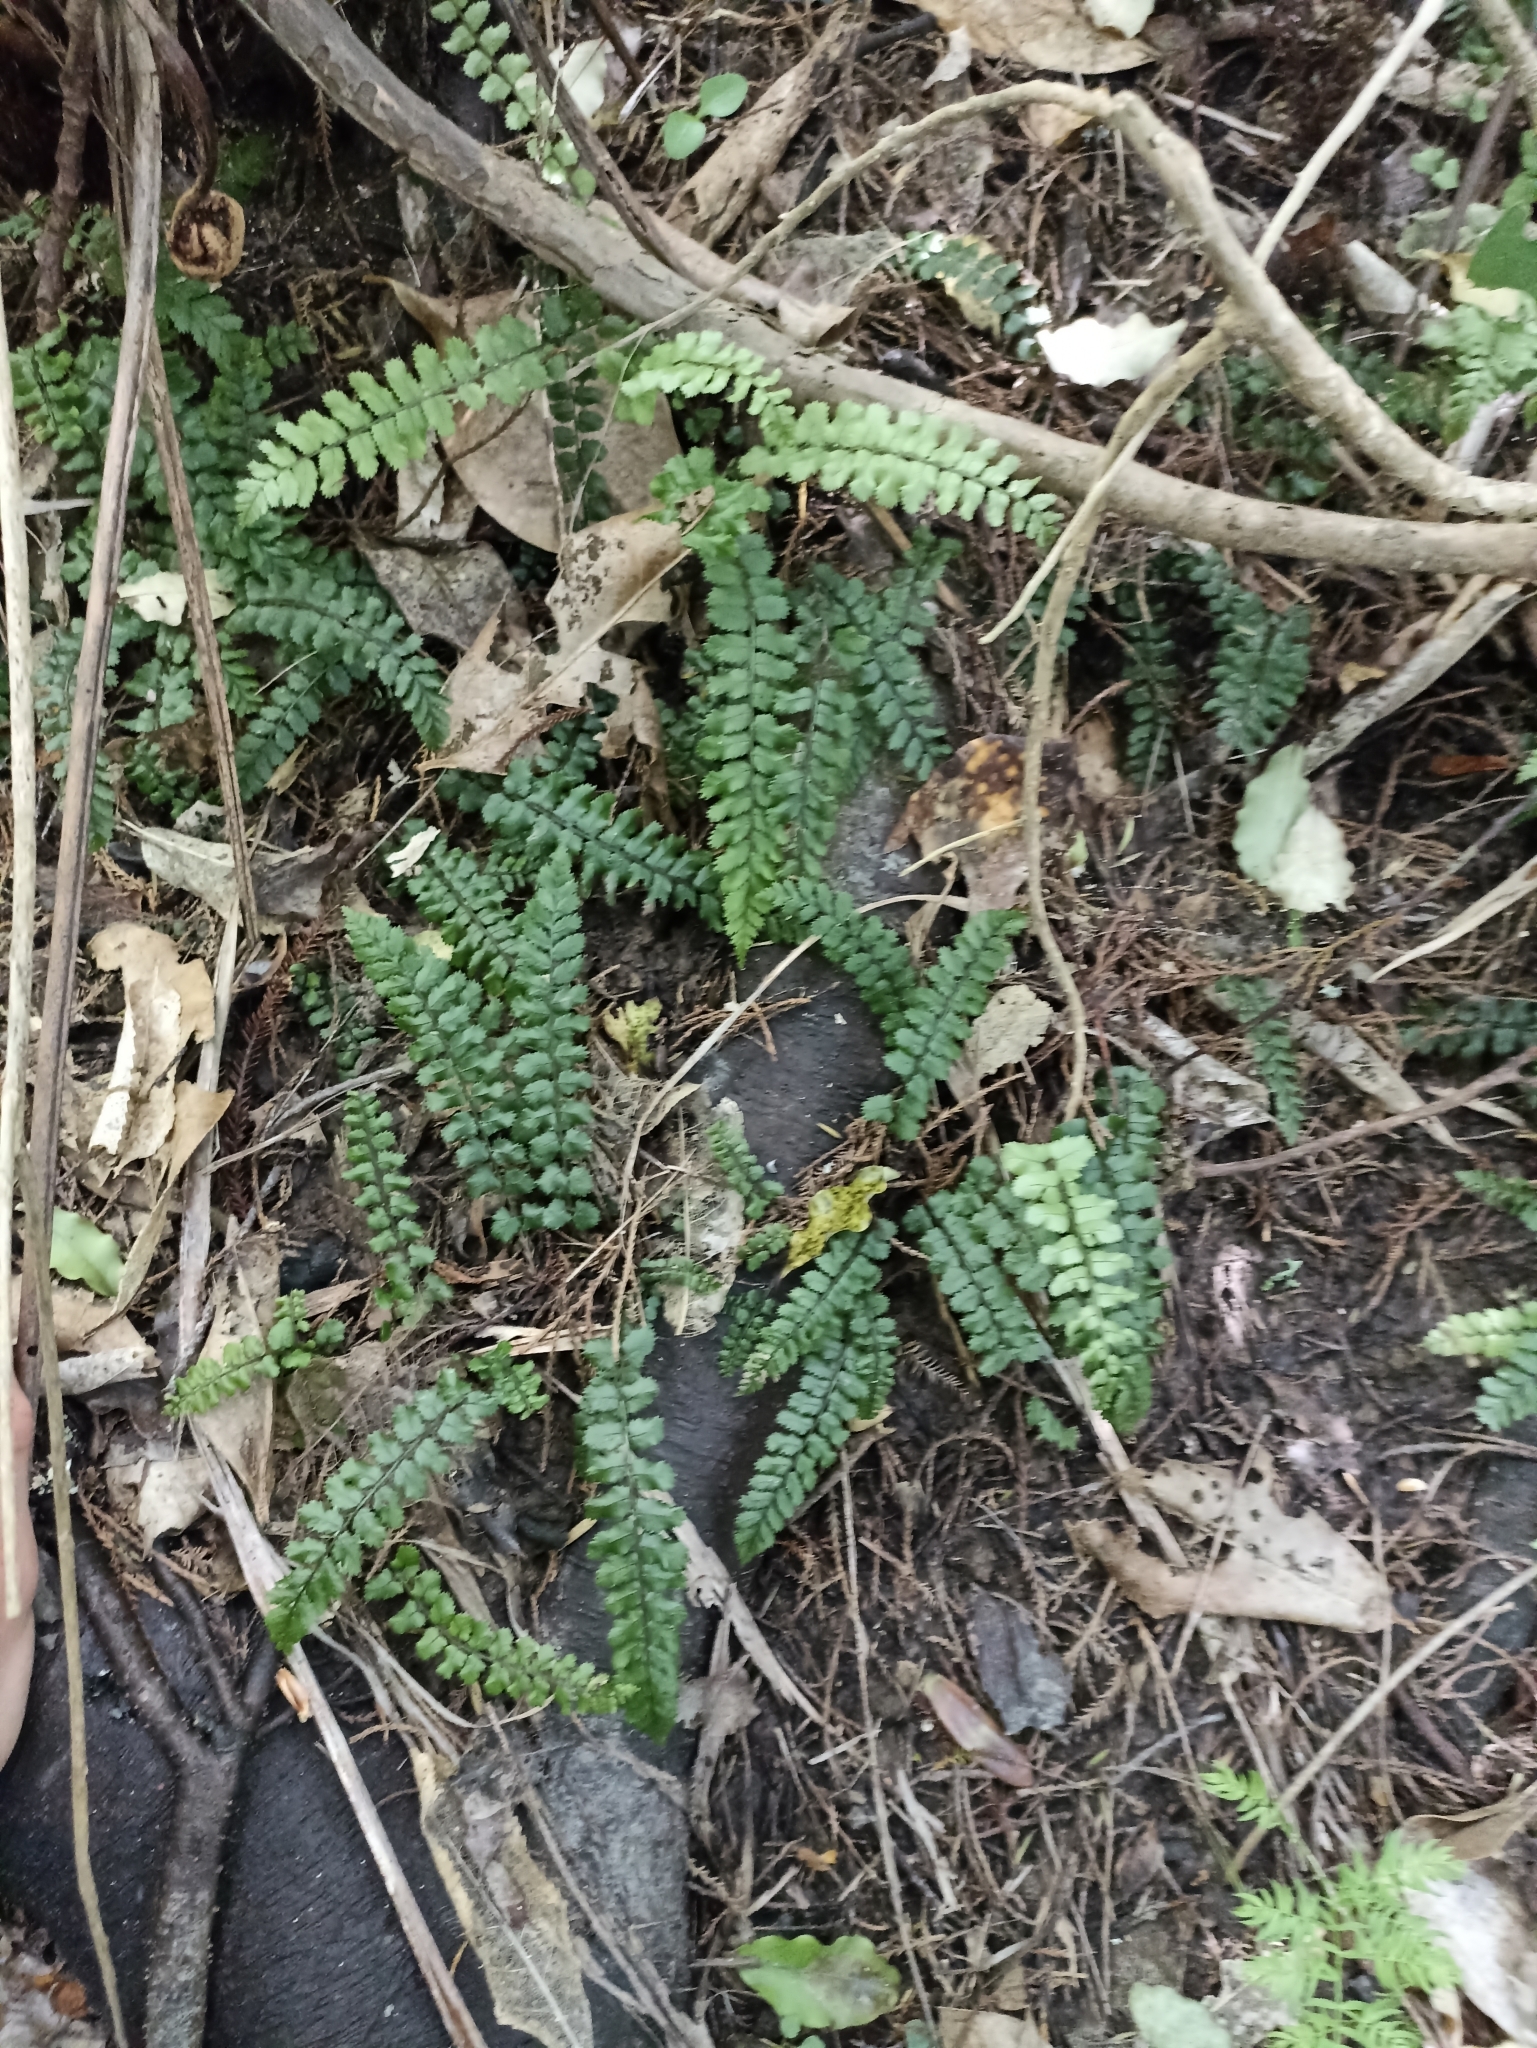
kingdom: Plantae
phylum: Tracheophyta
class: Polypodiopsida
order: Polypodiales
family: Blechnaceae
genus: Icarus
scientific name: Icarus filiformis
